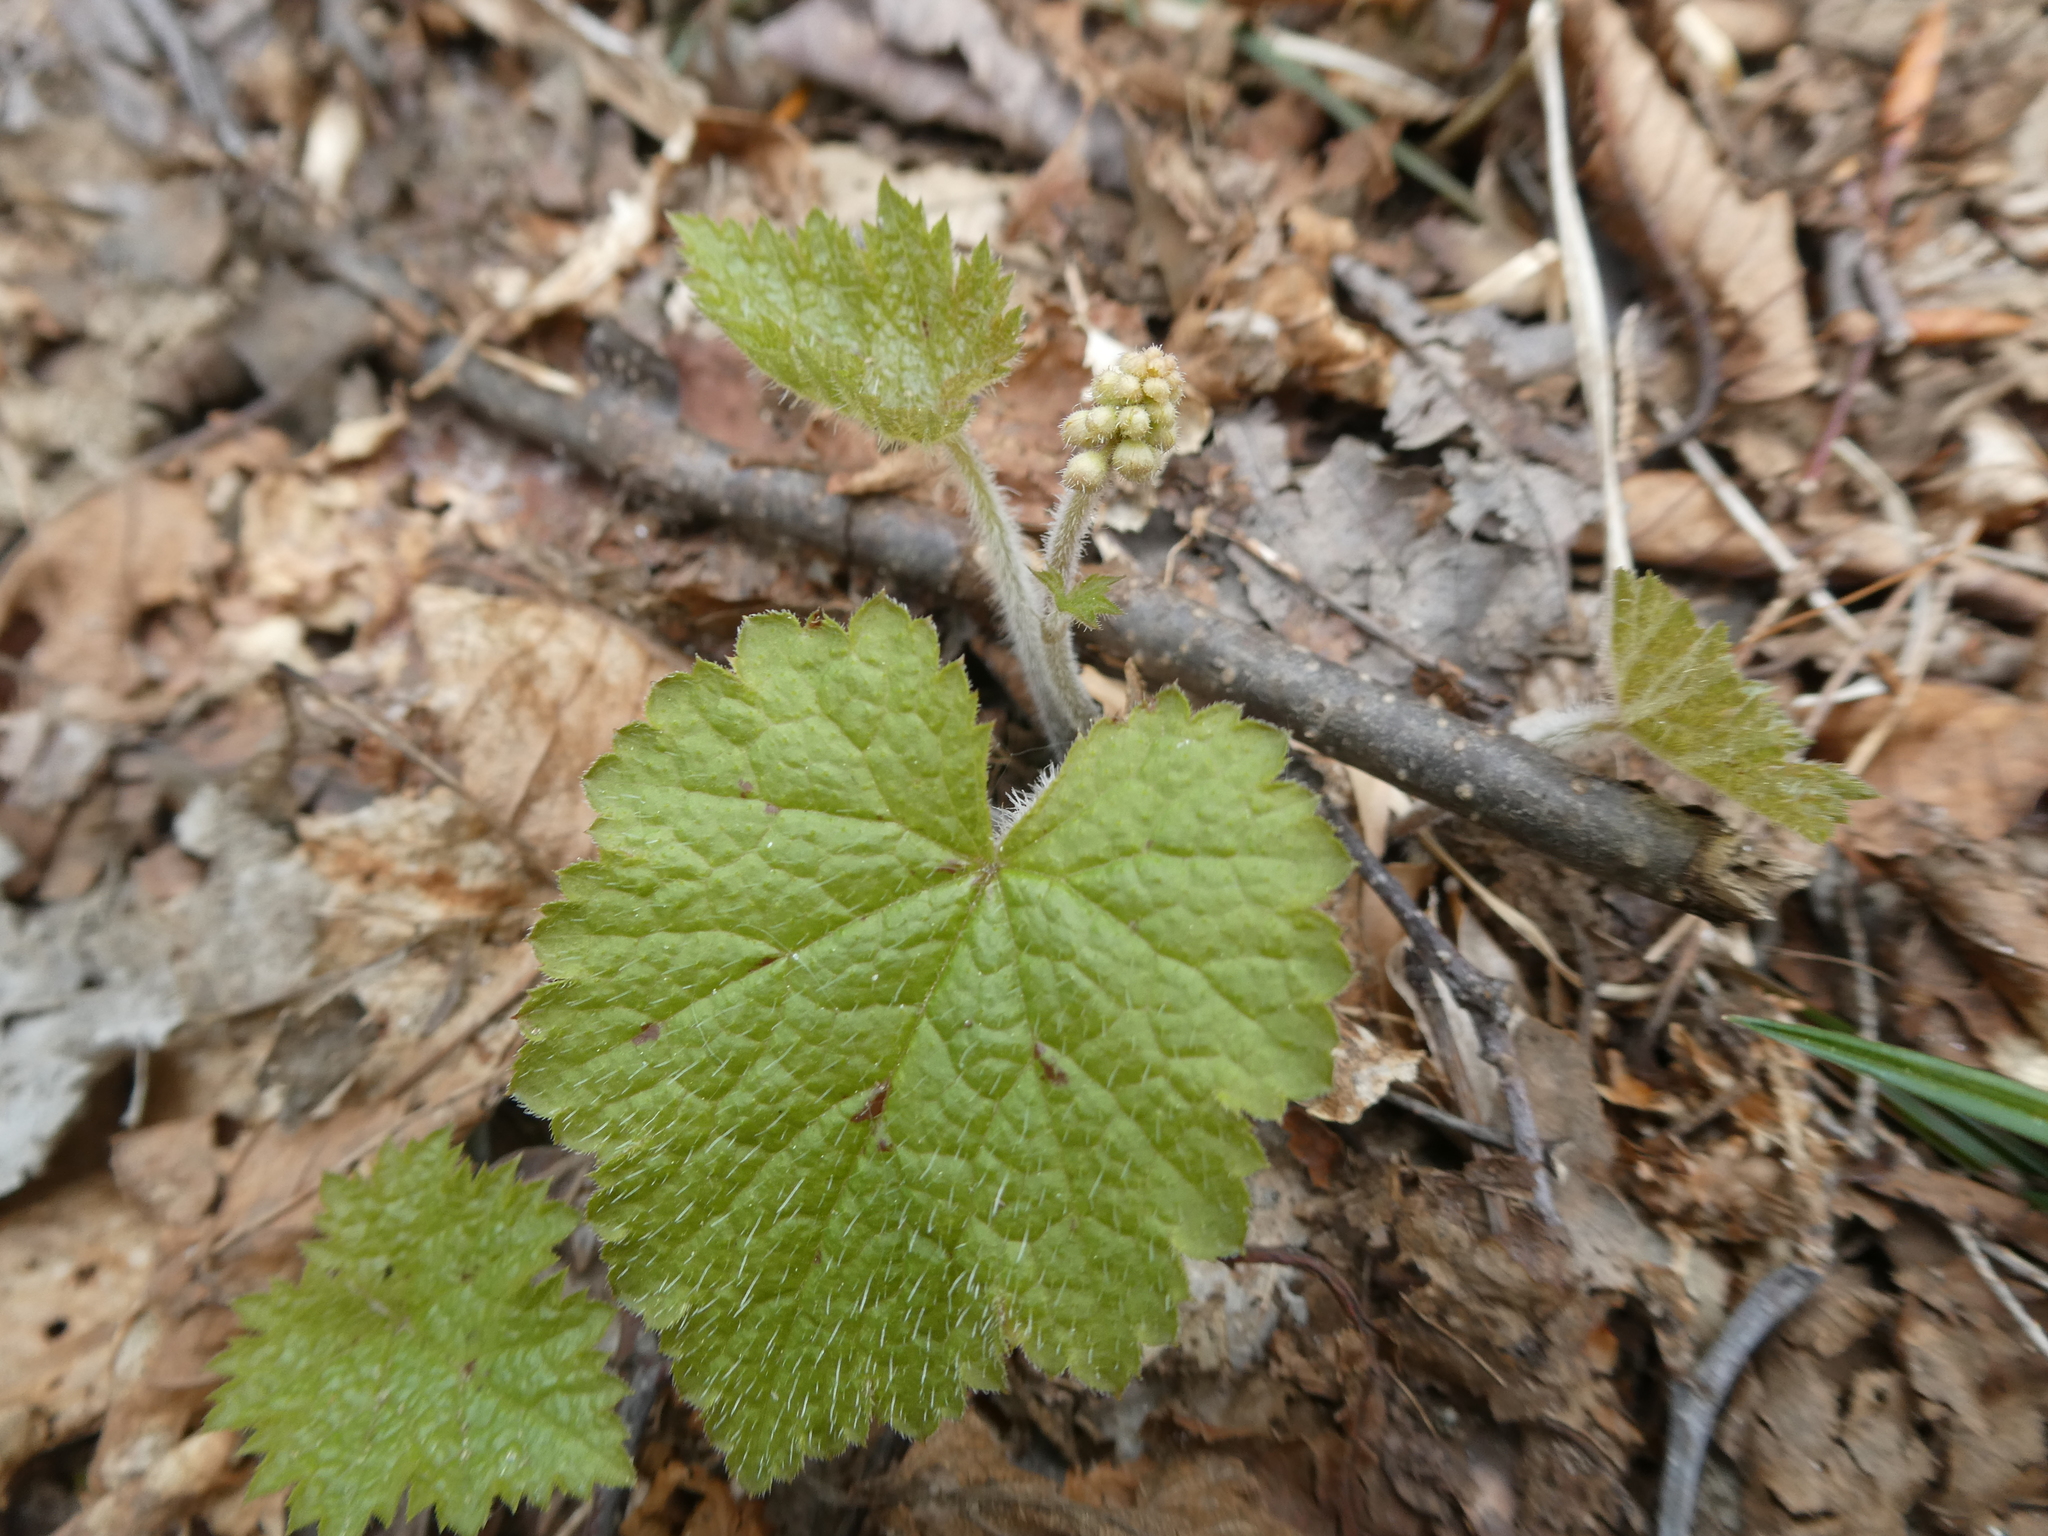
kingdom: Plantae
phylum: Tracheophyta
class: Magnoliopsida
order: Saxifragales
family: Saxifragaceae
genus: Tiarella
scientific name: Tiarella stolonifera
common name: Stoloniferous foamflower
